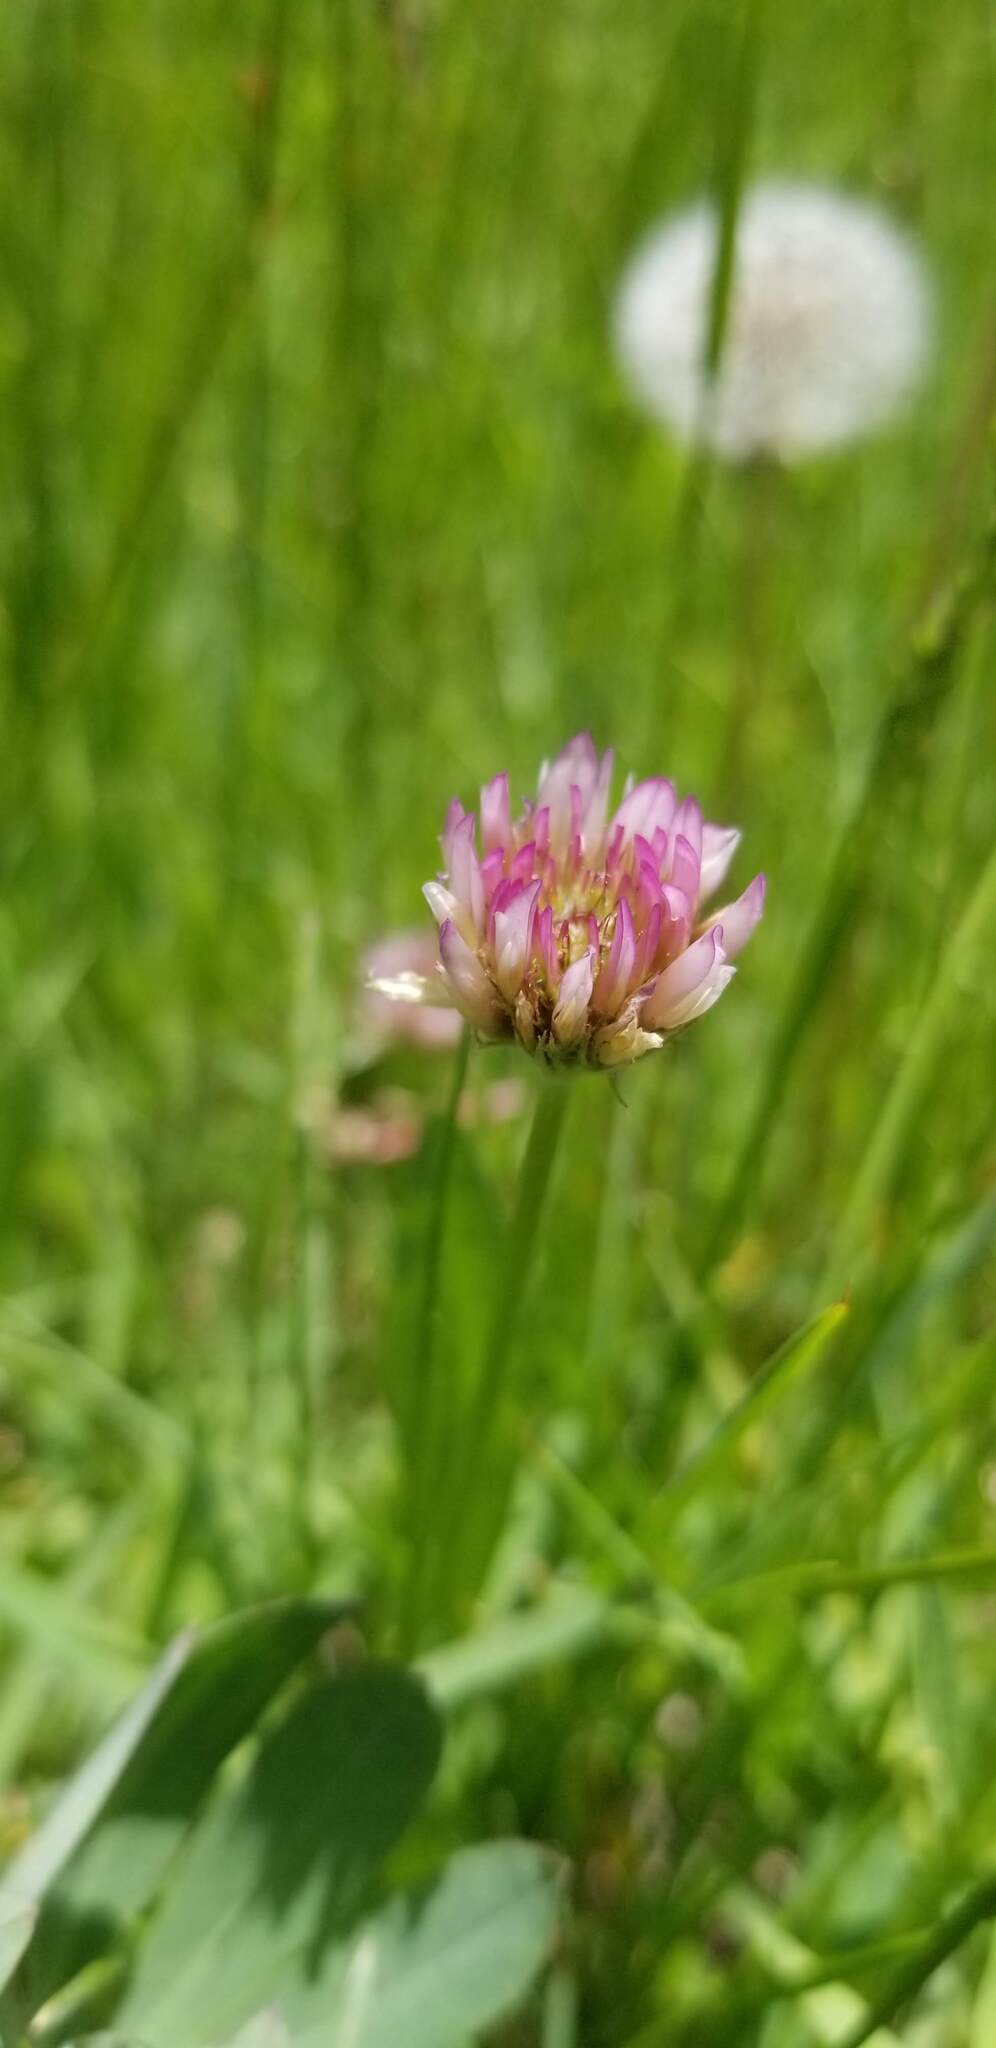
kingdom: Plantae
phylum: Tracheophyta
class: Magnoliopsida
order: Fabales
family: Fabaceae
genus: Trifolium
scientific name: Trifolium longipes
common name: Long-stalk clover
